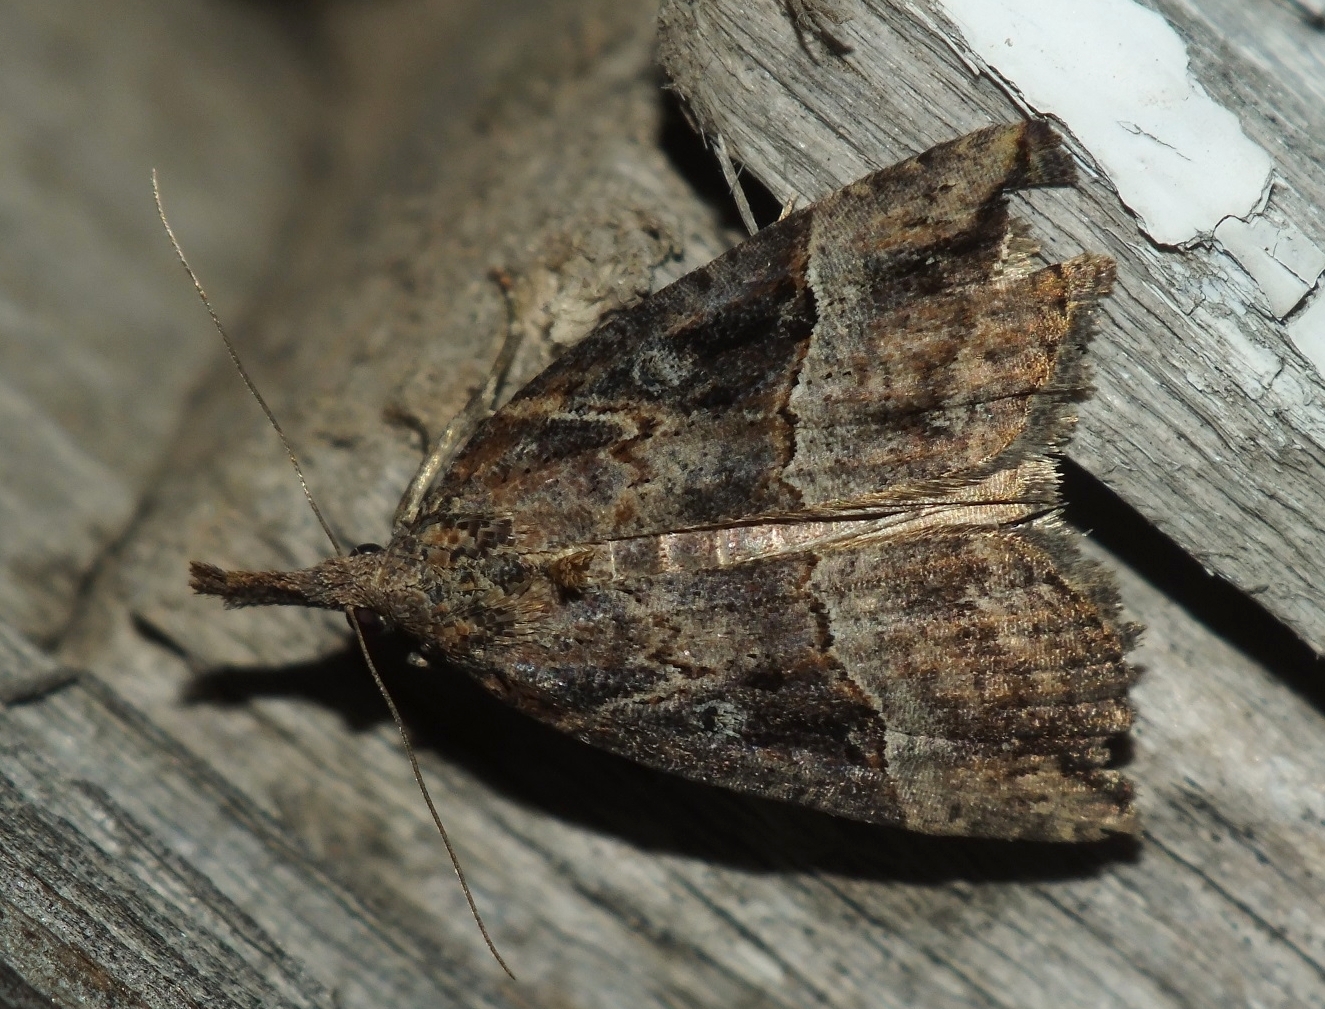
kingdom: Animalia
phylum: Arthropoda
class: Insecta
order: Lepidoptera
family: Erebidae
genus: Hypena
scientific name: Hypena rostralis
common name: Buttoned snout
